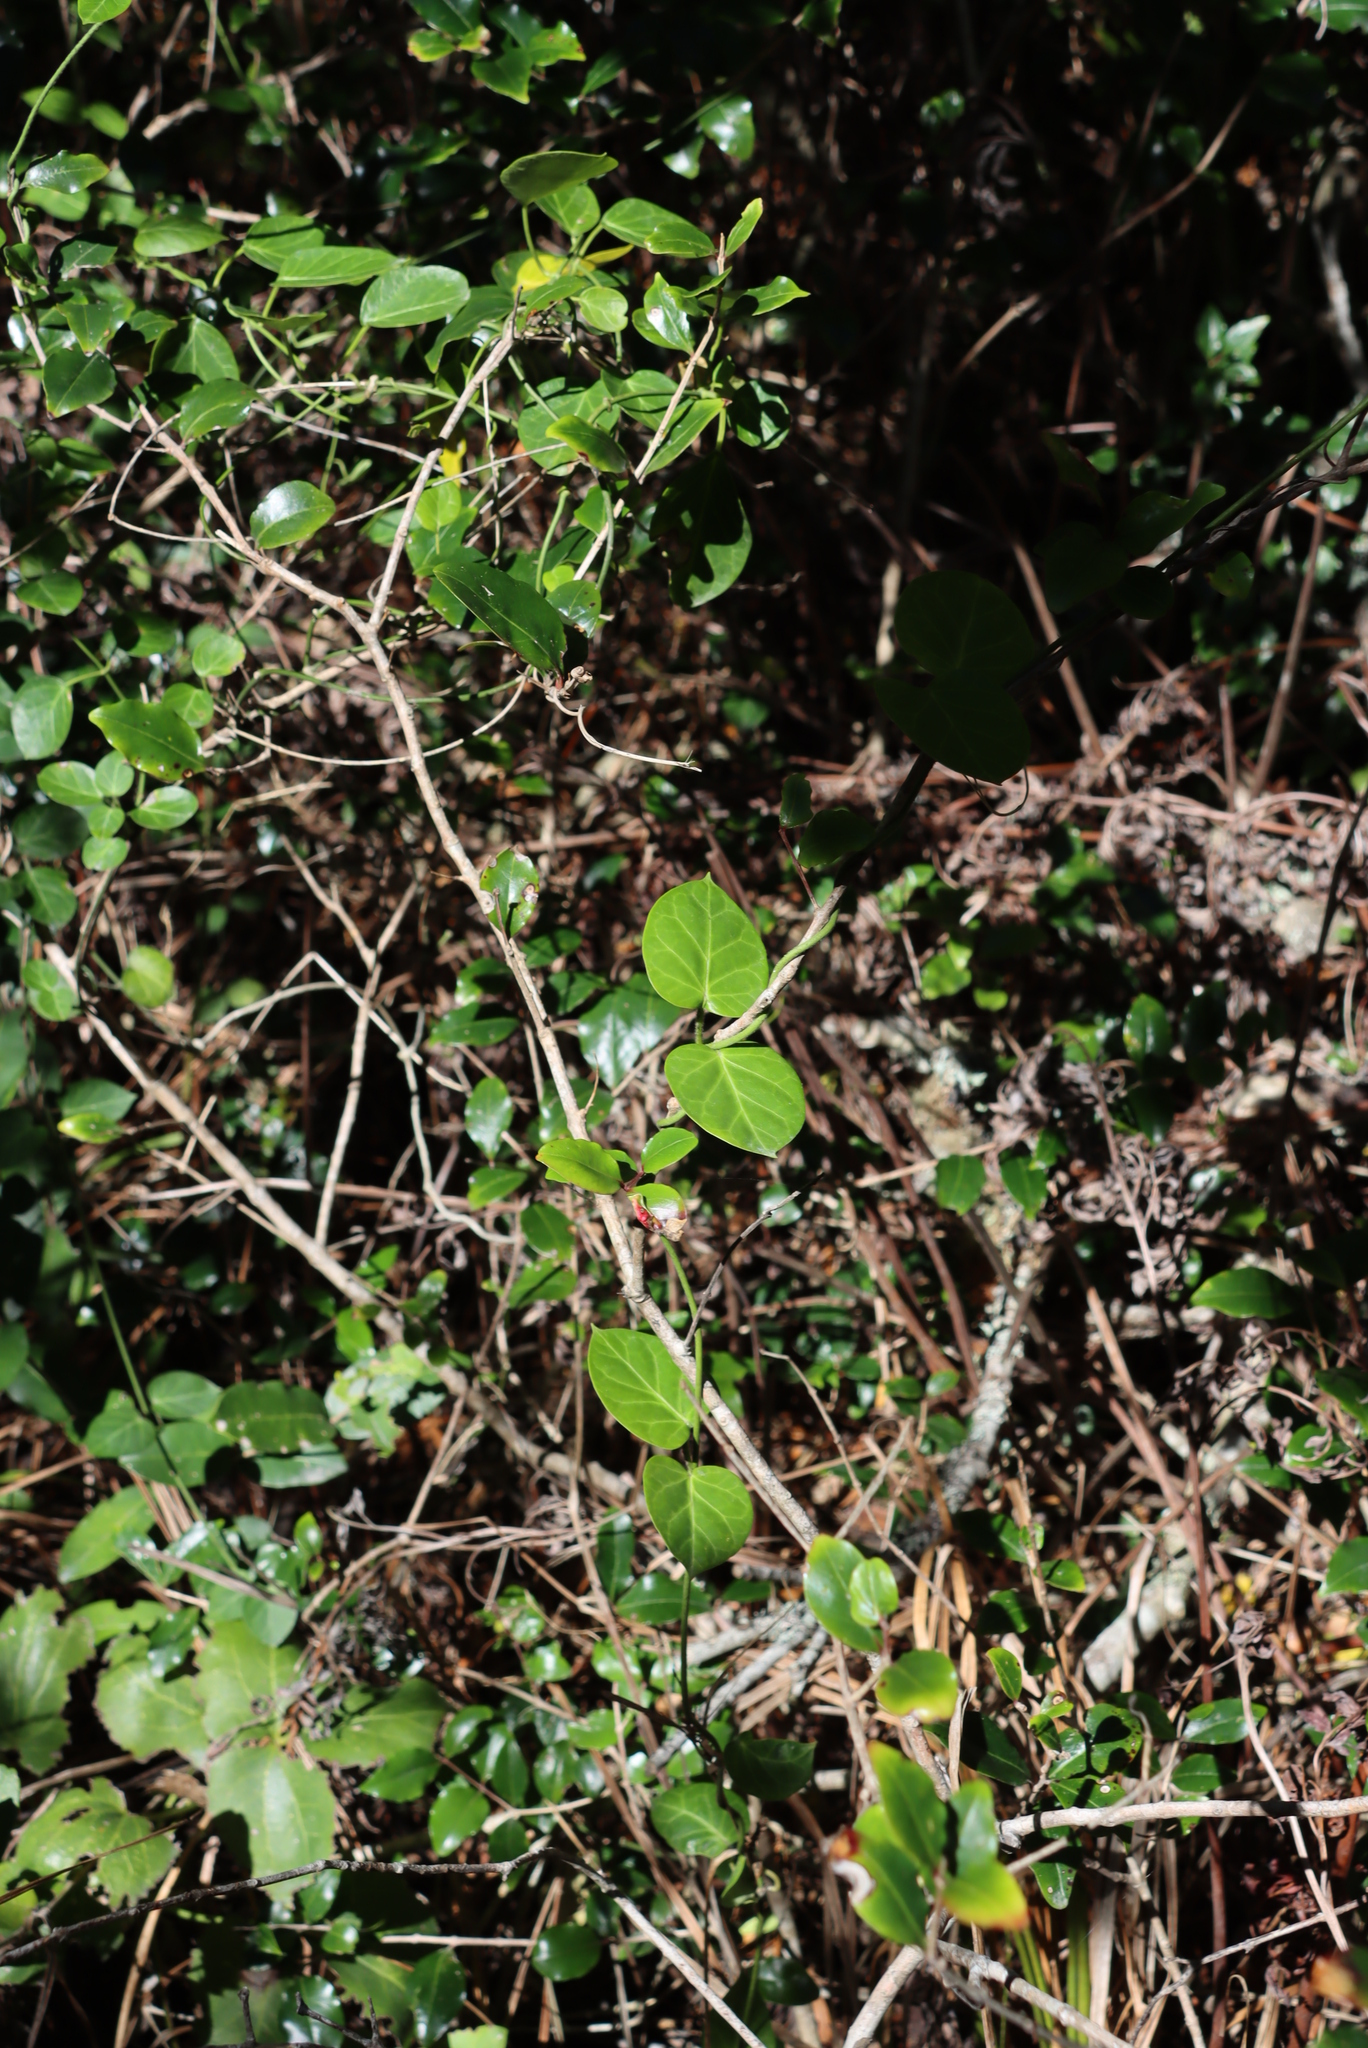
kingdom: Plantae
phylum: Tracheophyta
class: Magnoliopsida
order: Gentianales
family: Apocynaceae
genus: Cynanchum
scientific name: Cynanchum obtusifolium
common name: Monkey-rope
